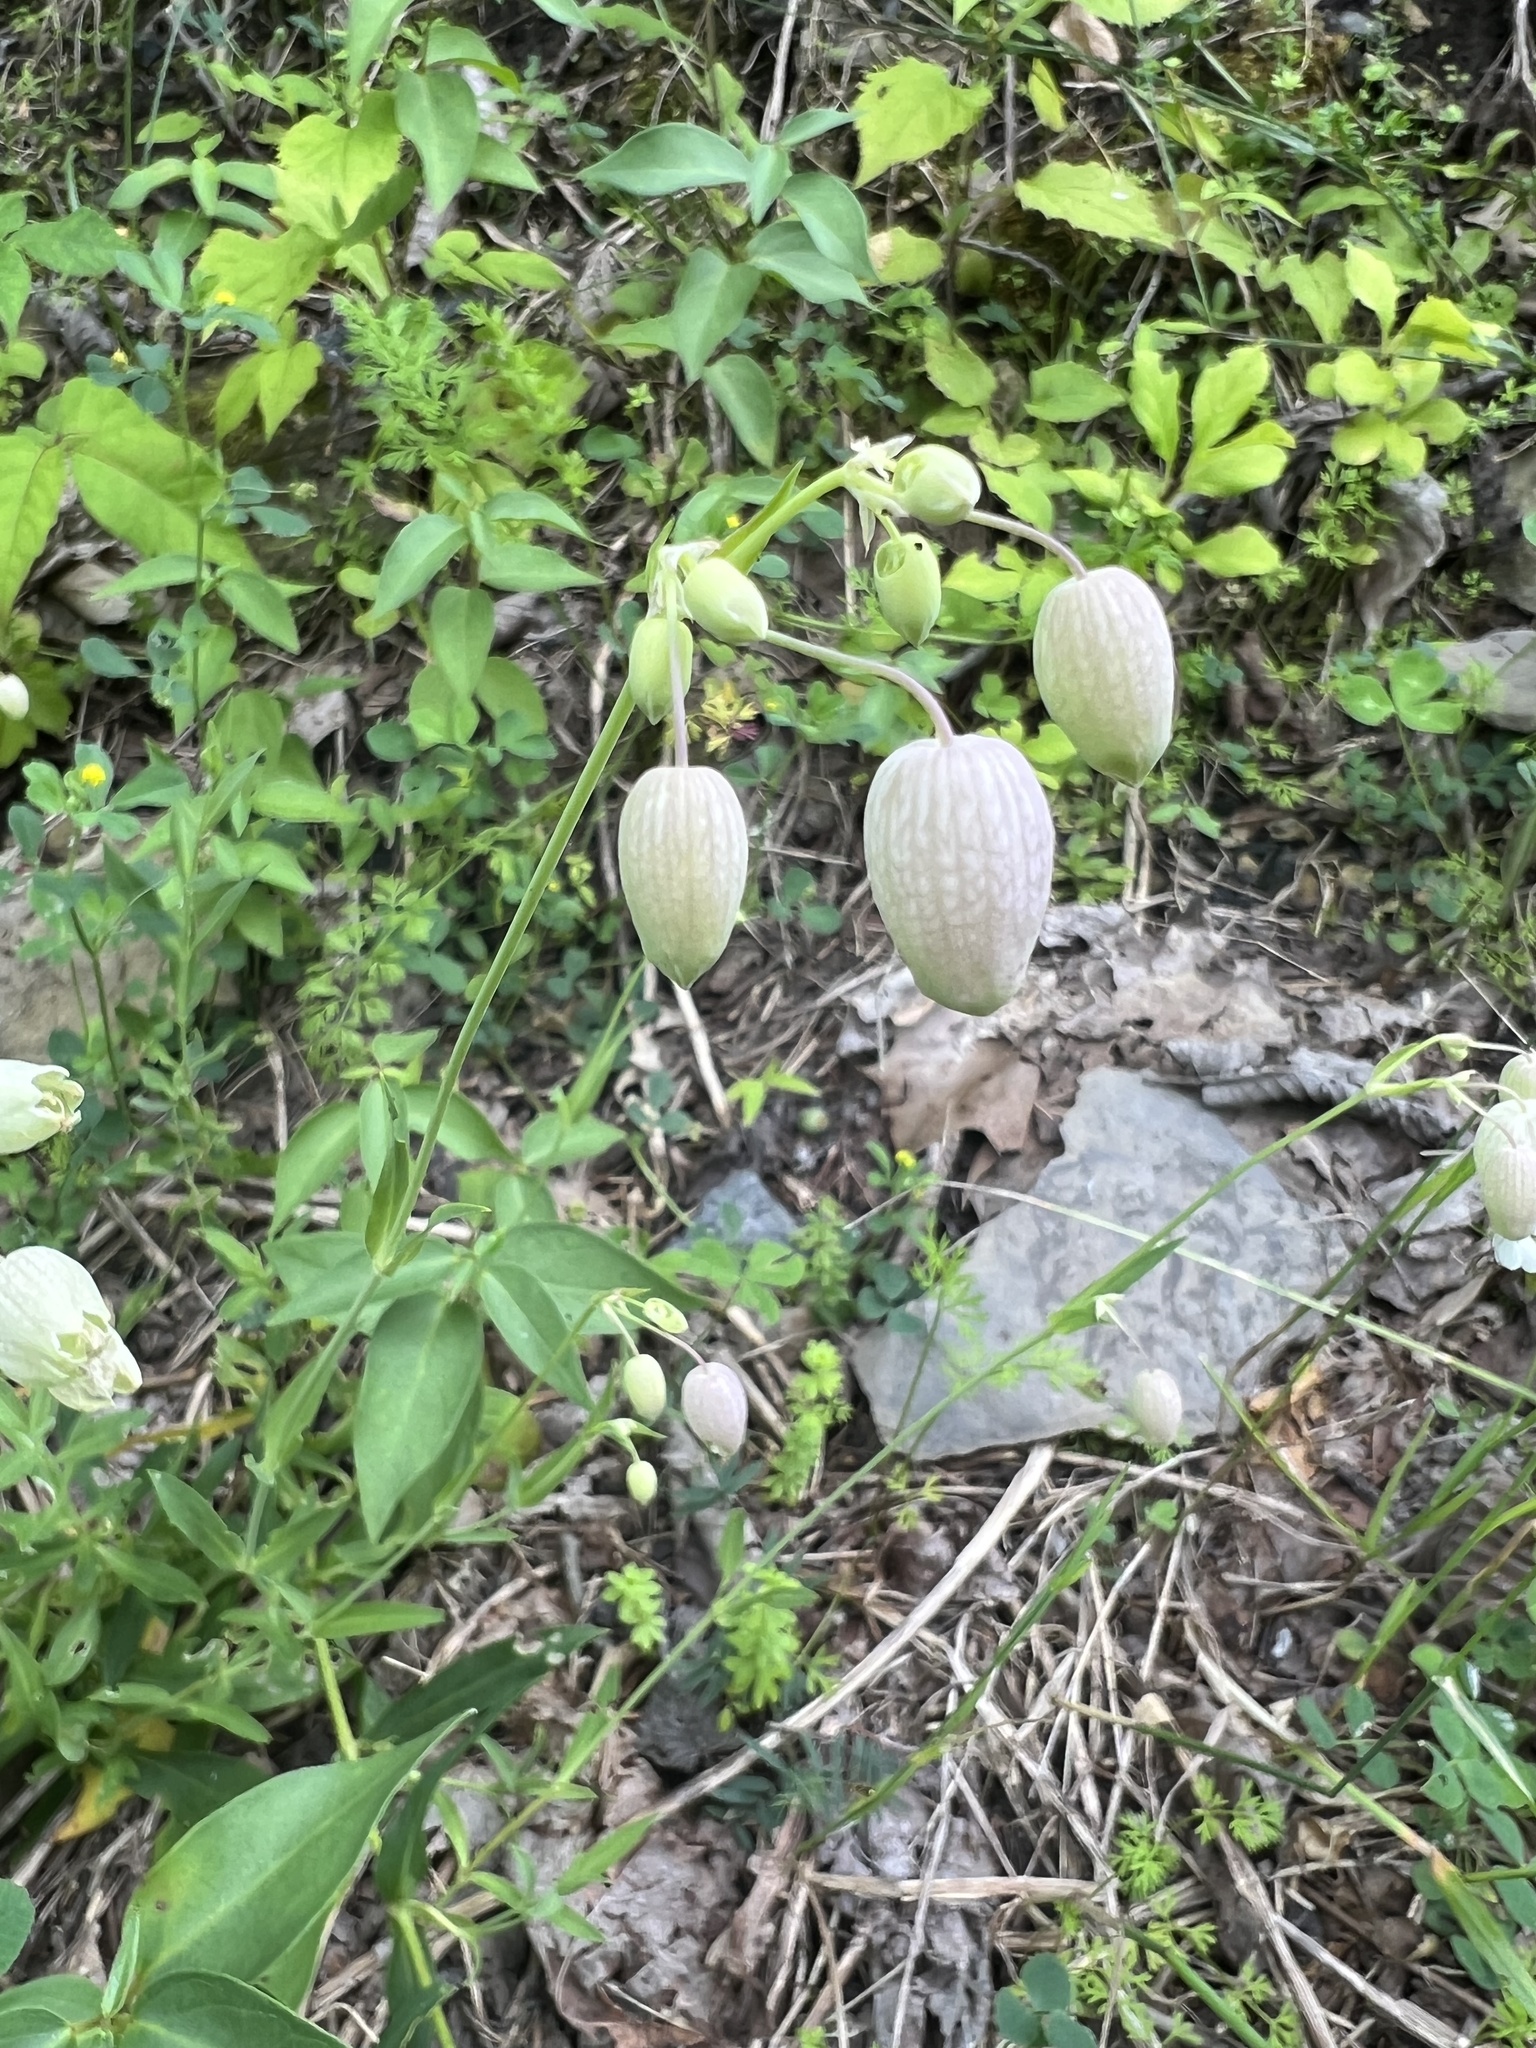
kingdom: Plantae
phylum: Tracheophyta
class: Magnoliopsida
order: Caryophyllales
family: Caryophyllaceae
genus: Silene
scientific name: Silene vulgaris
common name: Bladder campion
